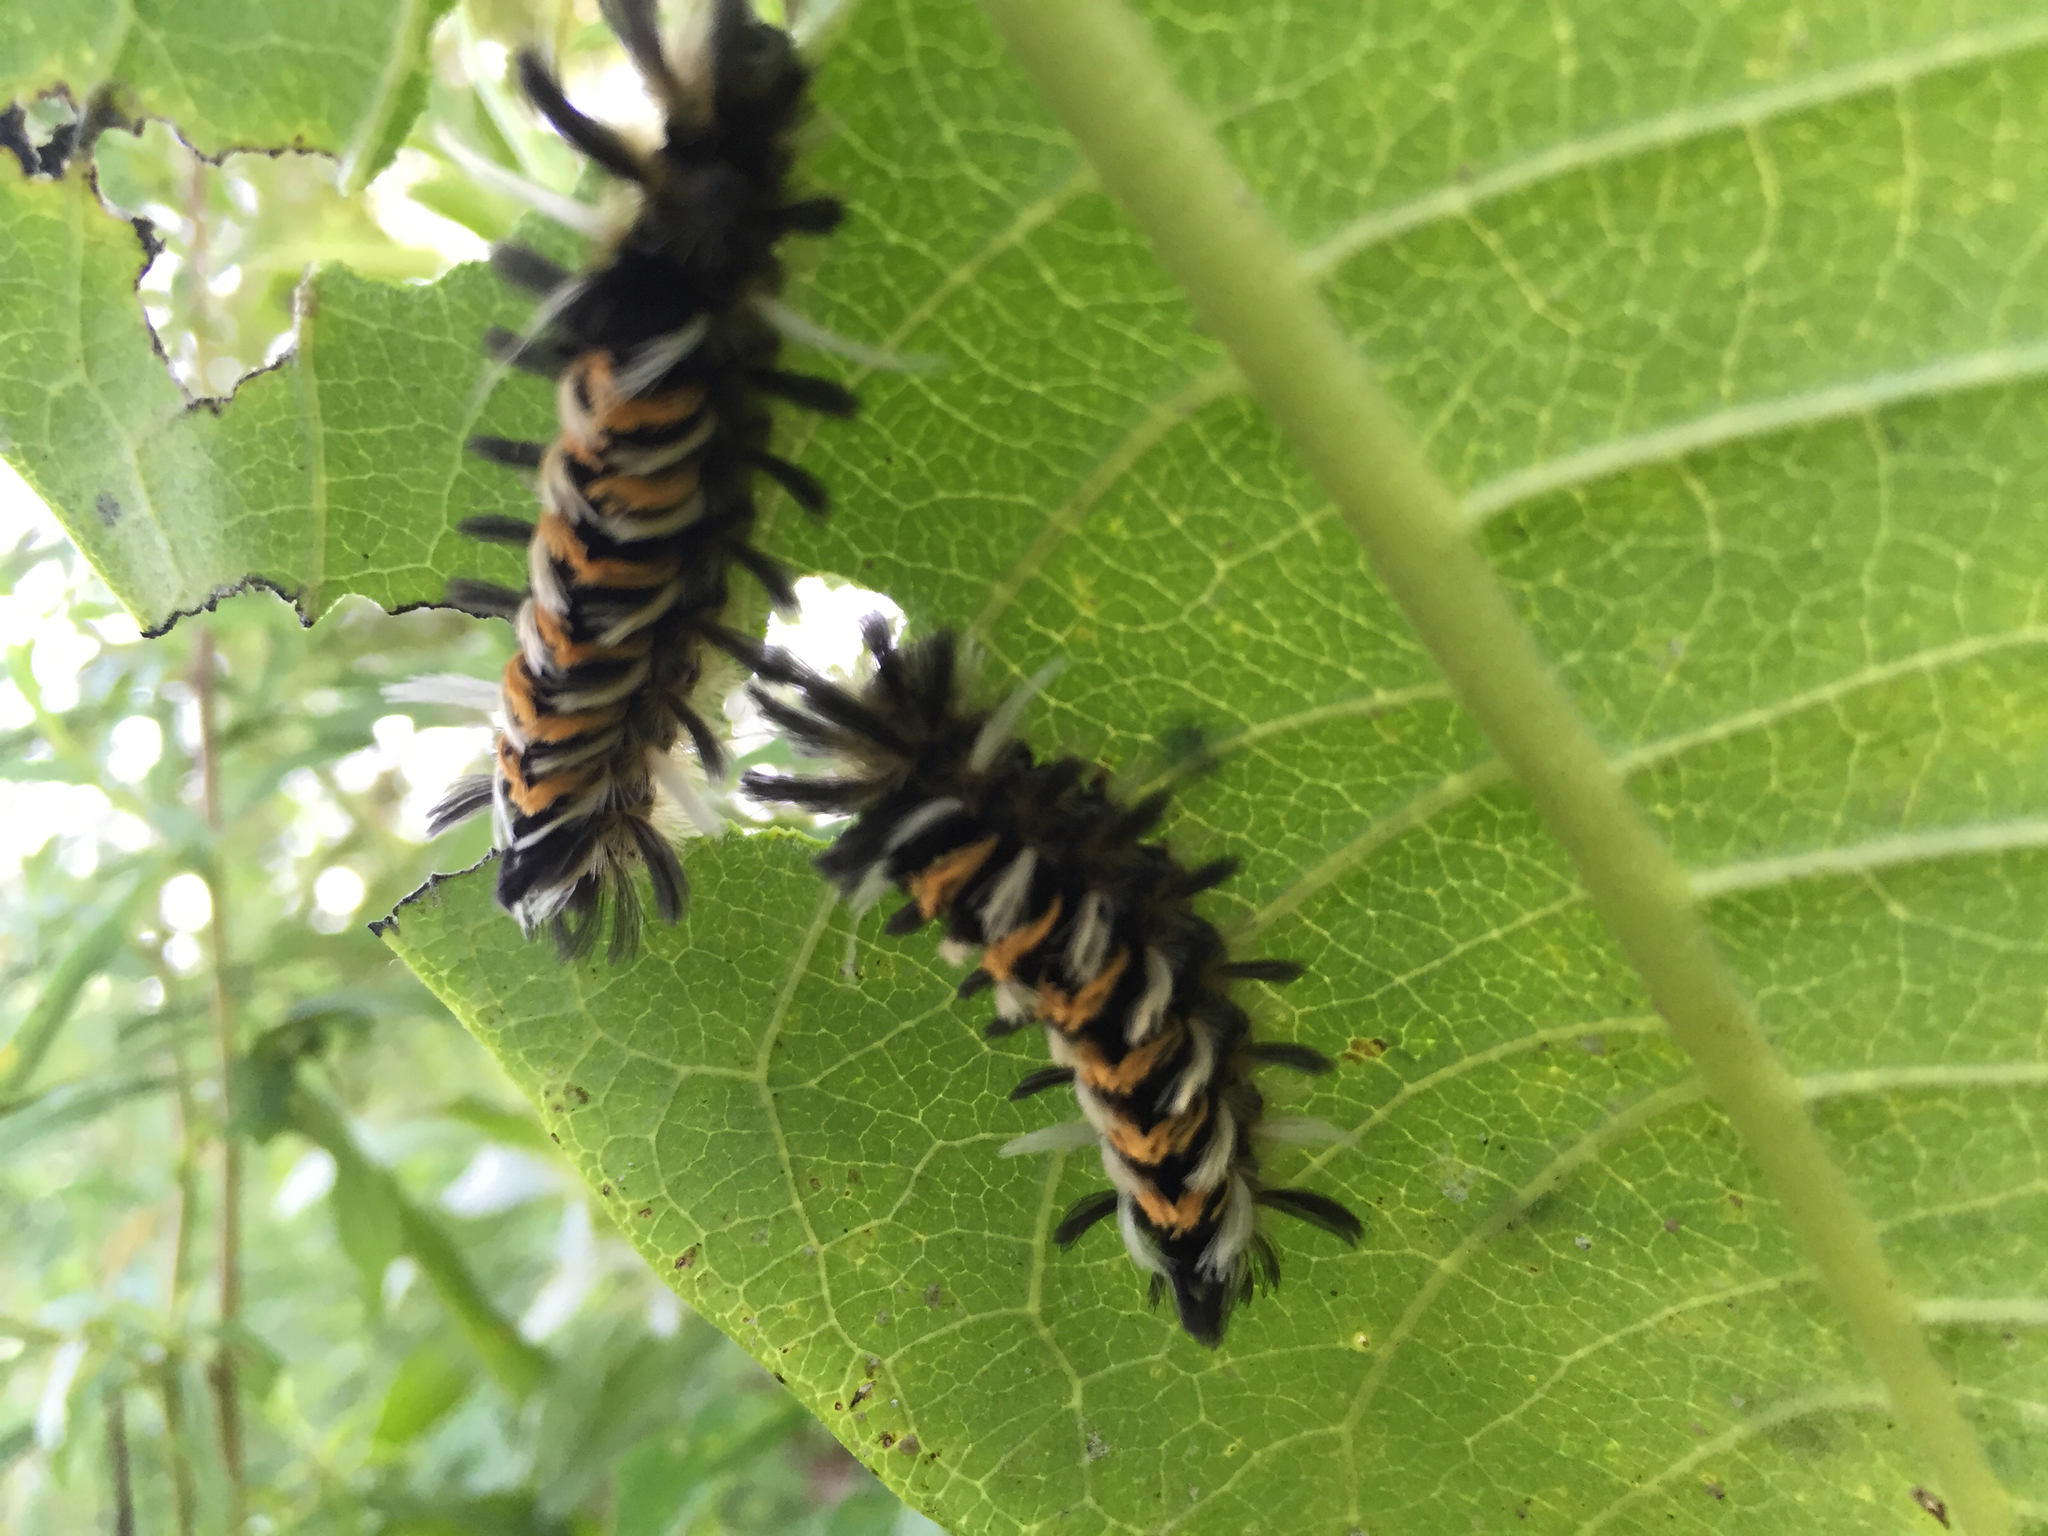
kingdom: Animalia
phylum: Arthropoda
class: Insecta
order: Lepidoptera
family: Erebidae
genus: Euchaetes
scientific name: Euchaetes egle
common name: Milkweed tussock moth
